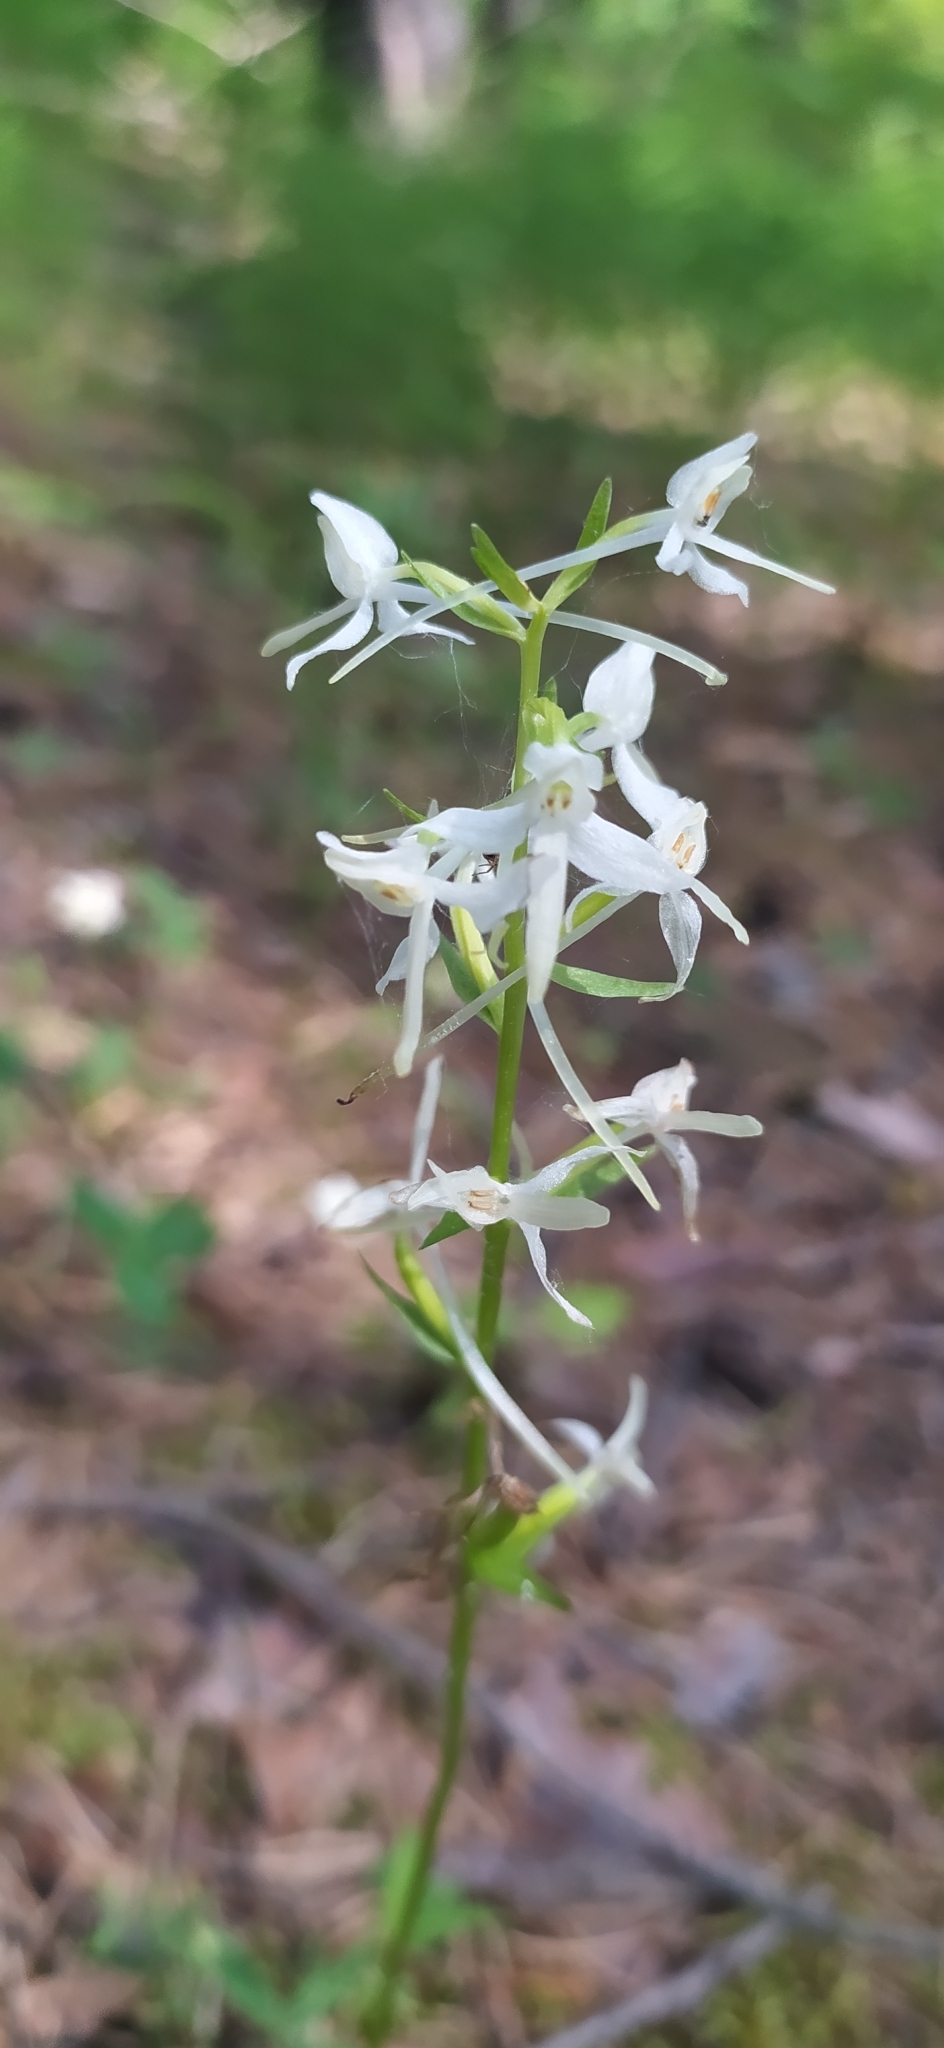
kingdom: Plantae
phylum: Tracheophyta
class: Liliopsida
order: Asparagales
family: Orchidaceae
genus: Platanthera
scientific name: Platanthera bifolia
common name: Lesser butterfly-orchid
